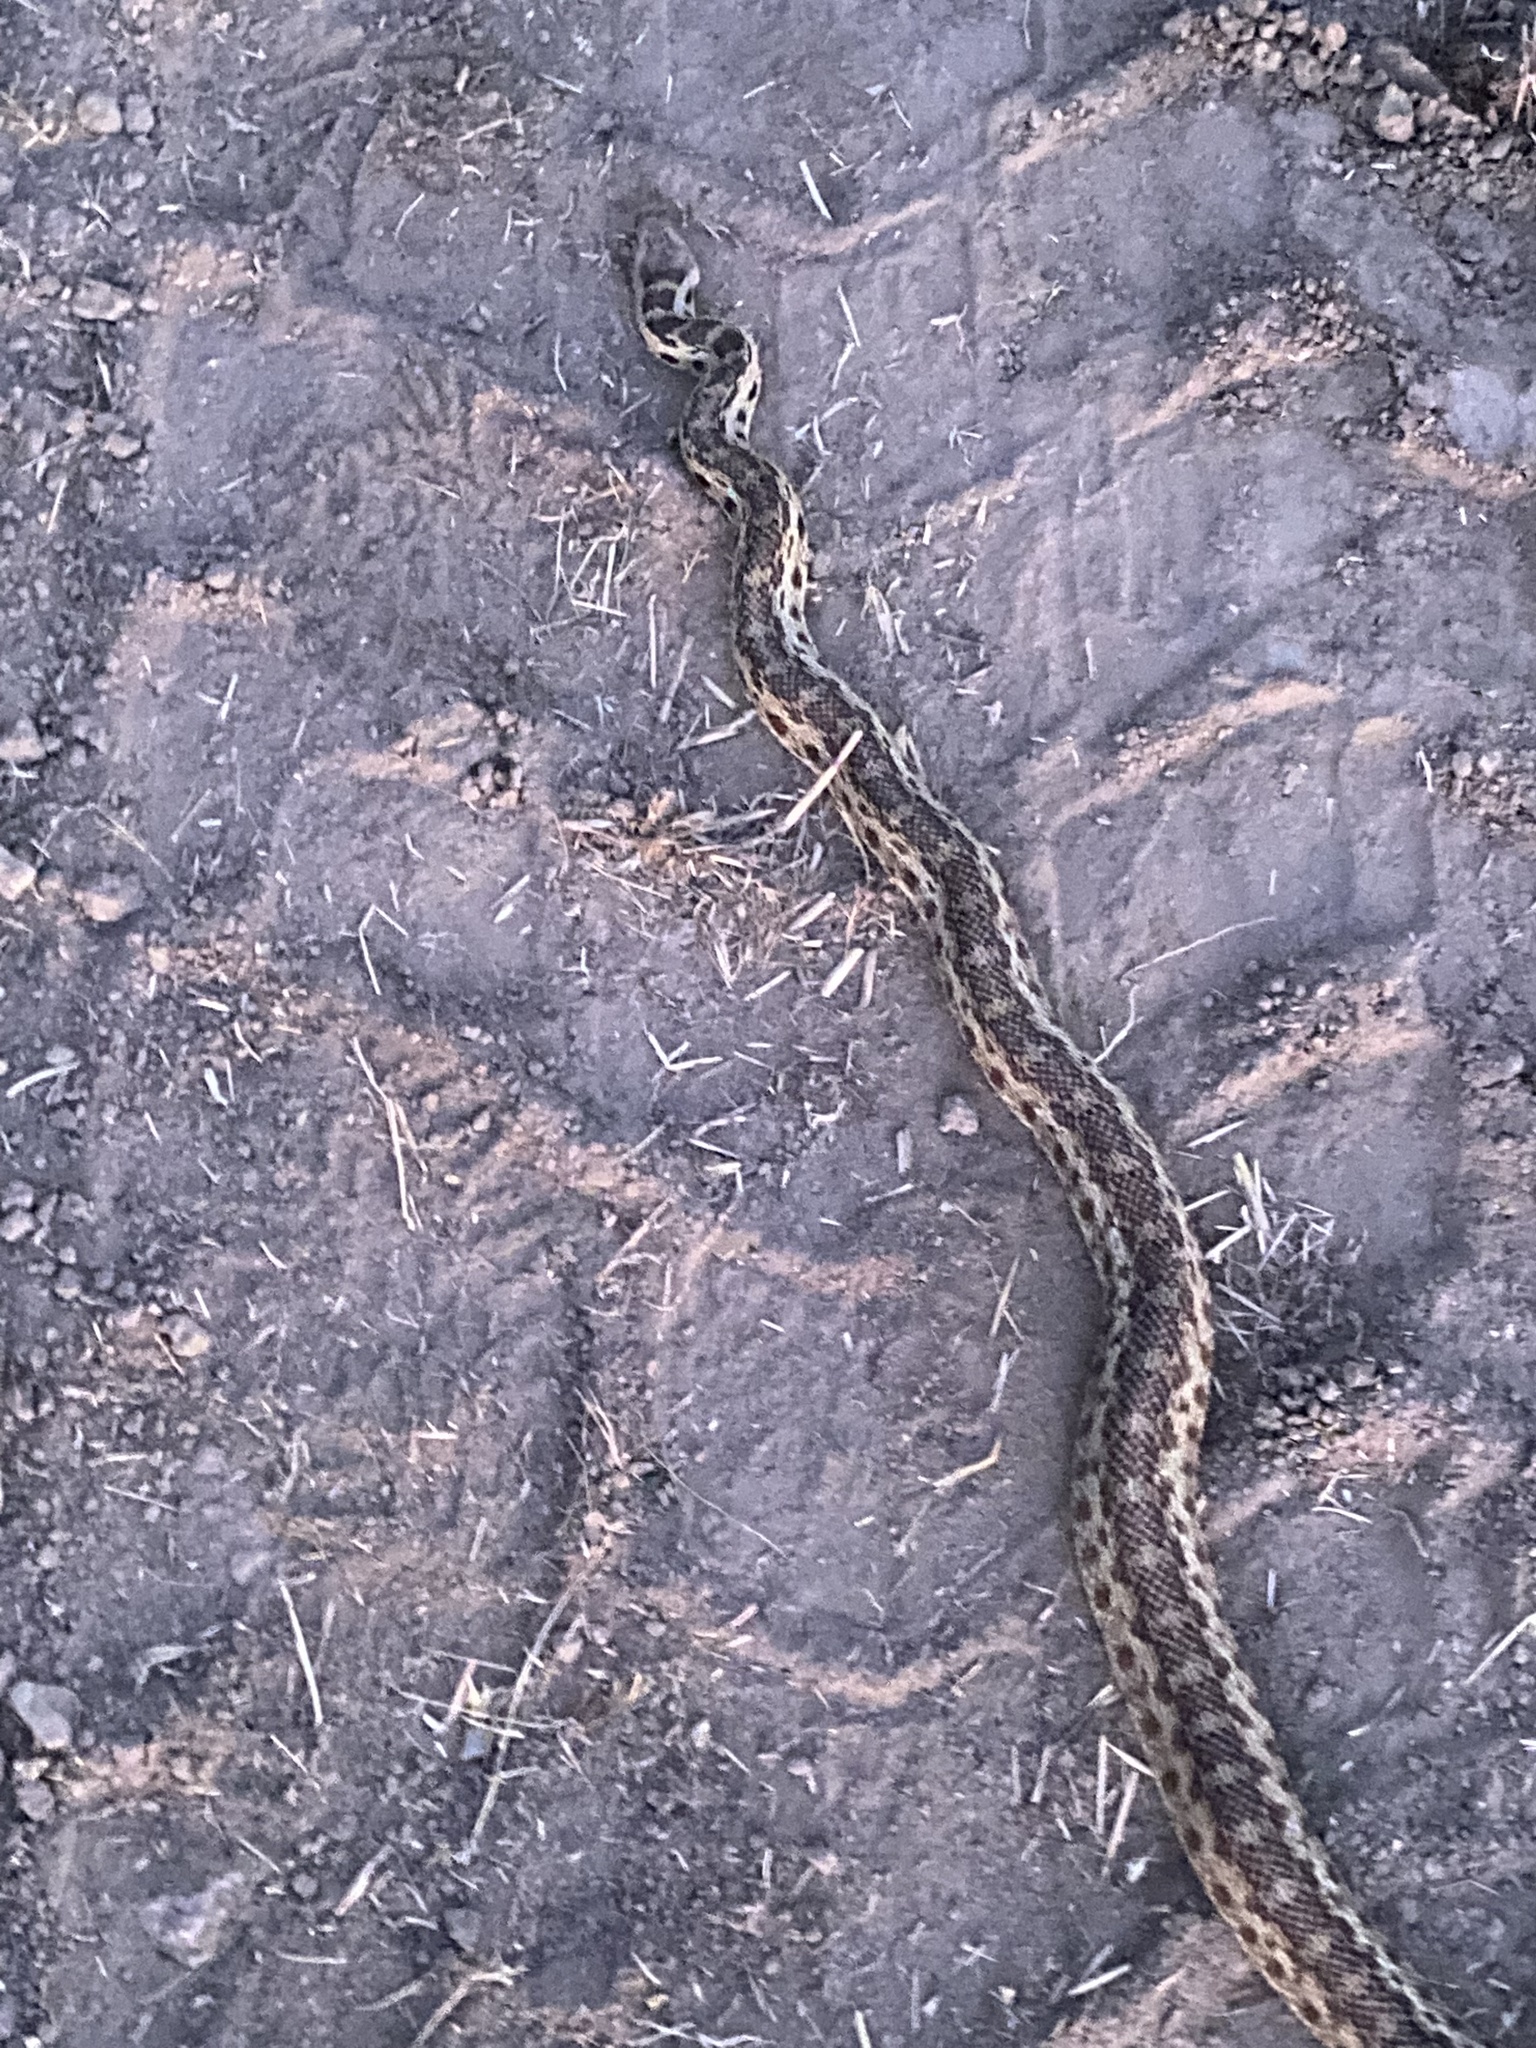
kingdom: Animalia
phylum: Chordata
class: Squamata
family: Colubridae
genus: Pituophis
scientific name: Pituophis catenifer
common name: Gopher snake
